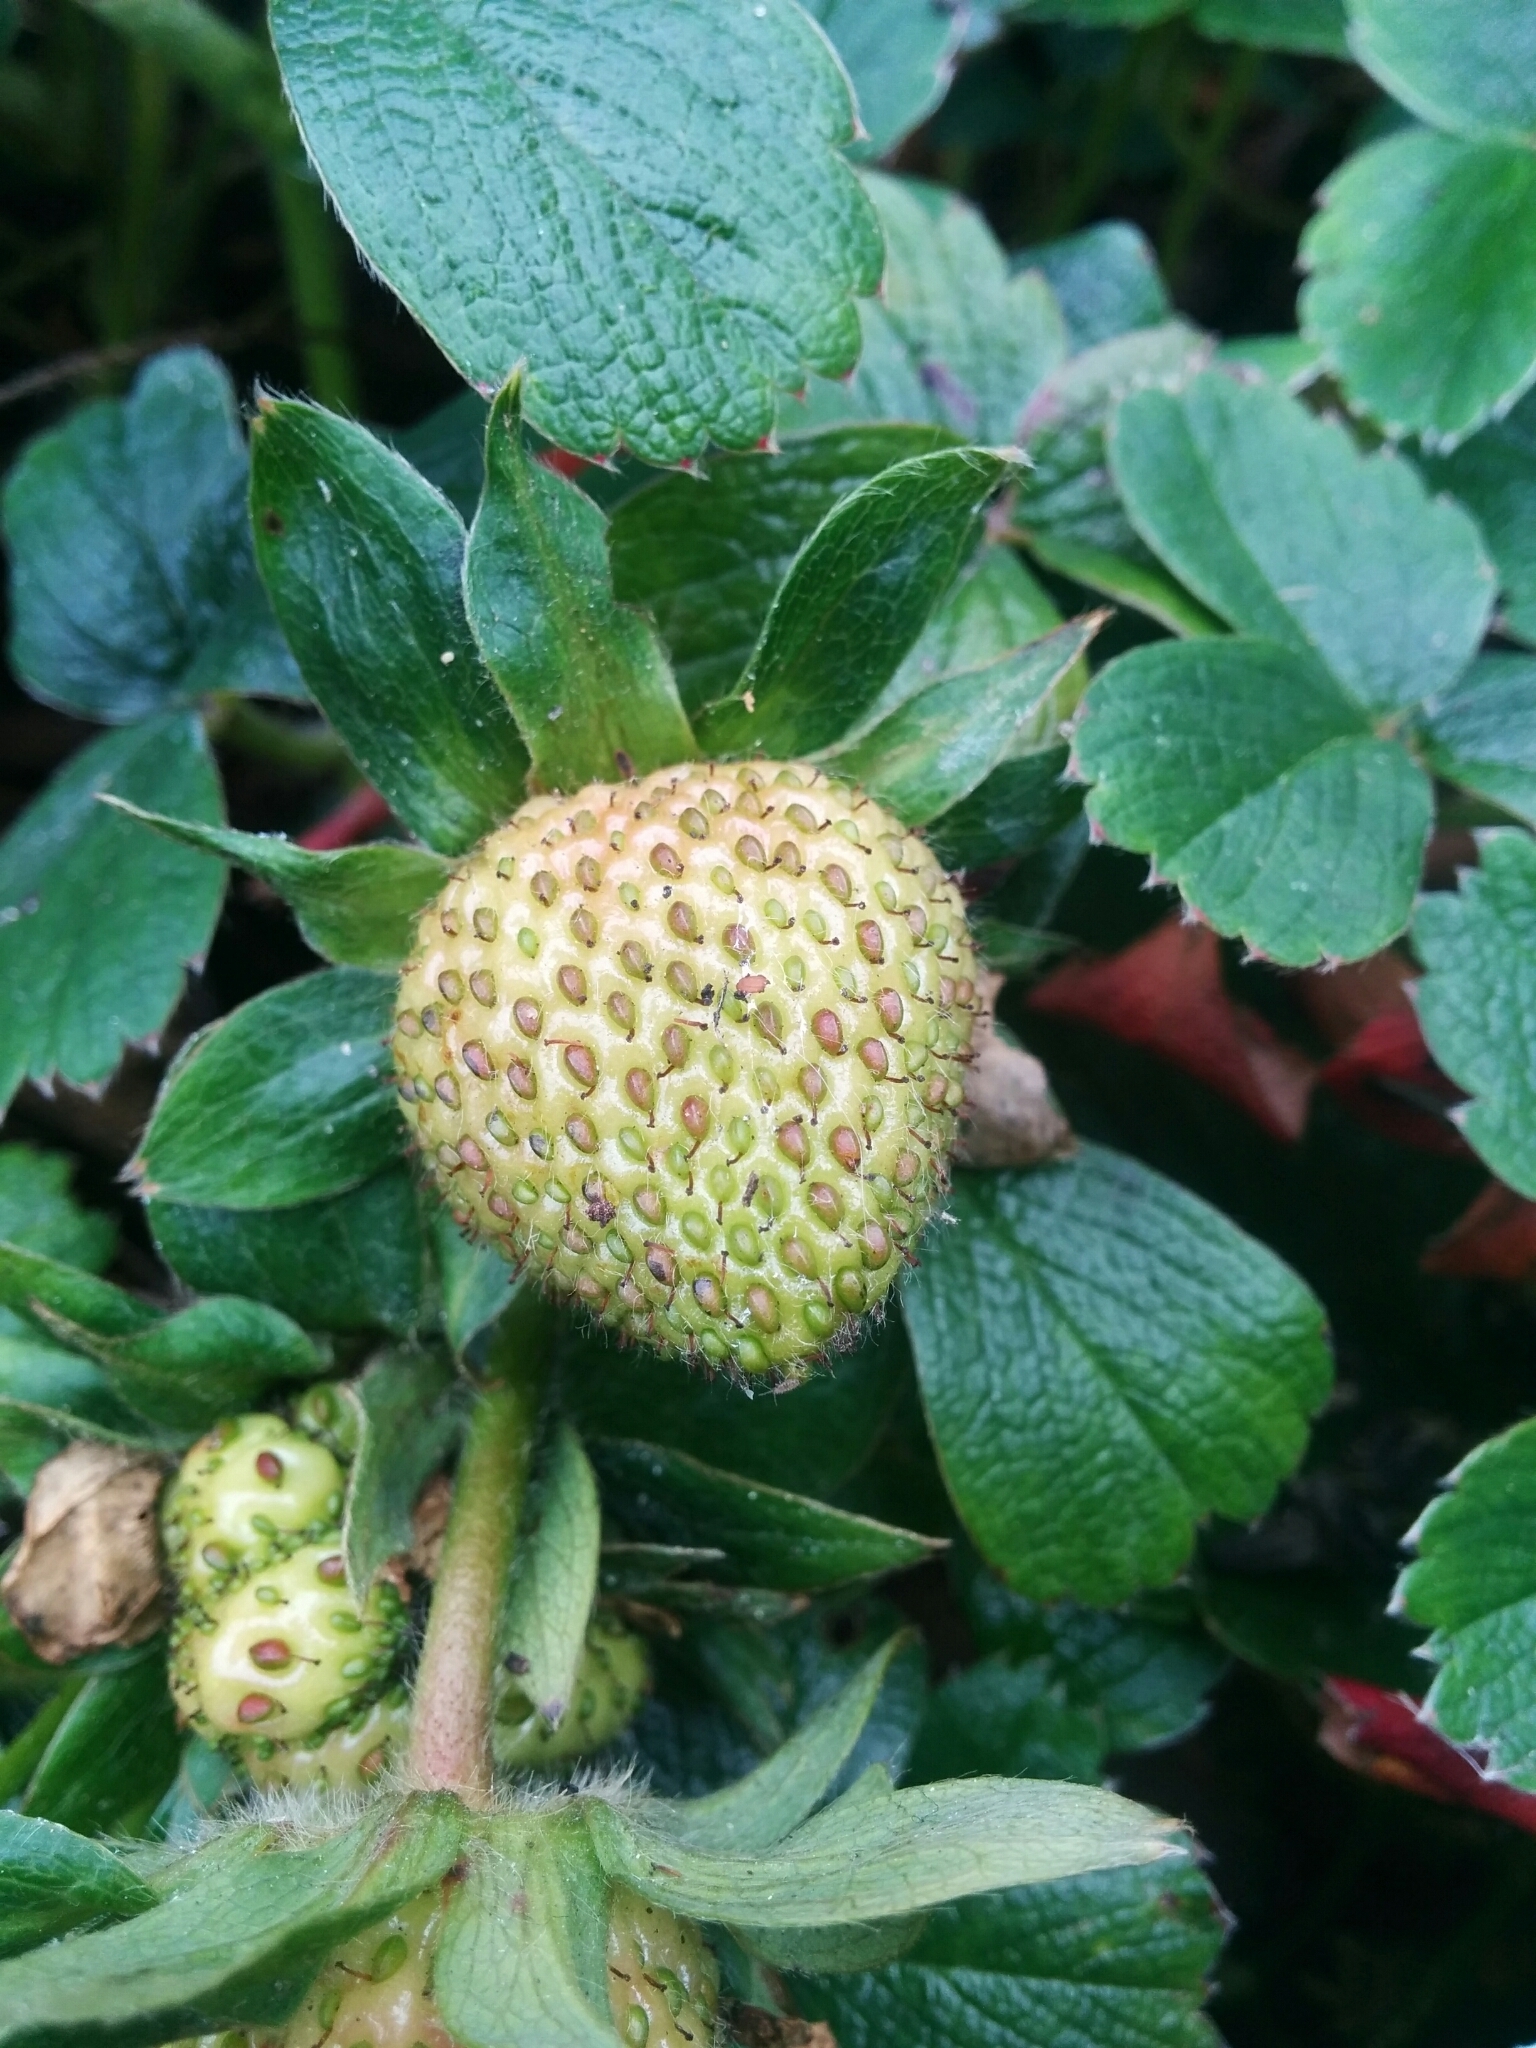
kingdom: Plantae
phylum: Tracheophyta
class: Magnoliopsida
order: Rosales
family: Rosaceae
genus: Fragaria
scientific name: Fragaria chiloensis
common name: Beach strawberry
